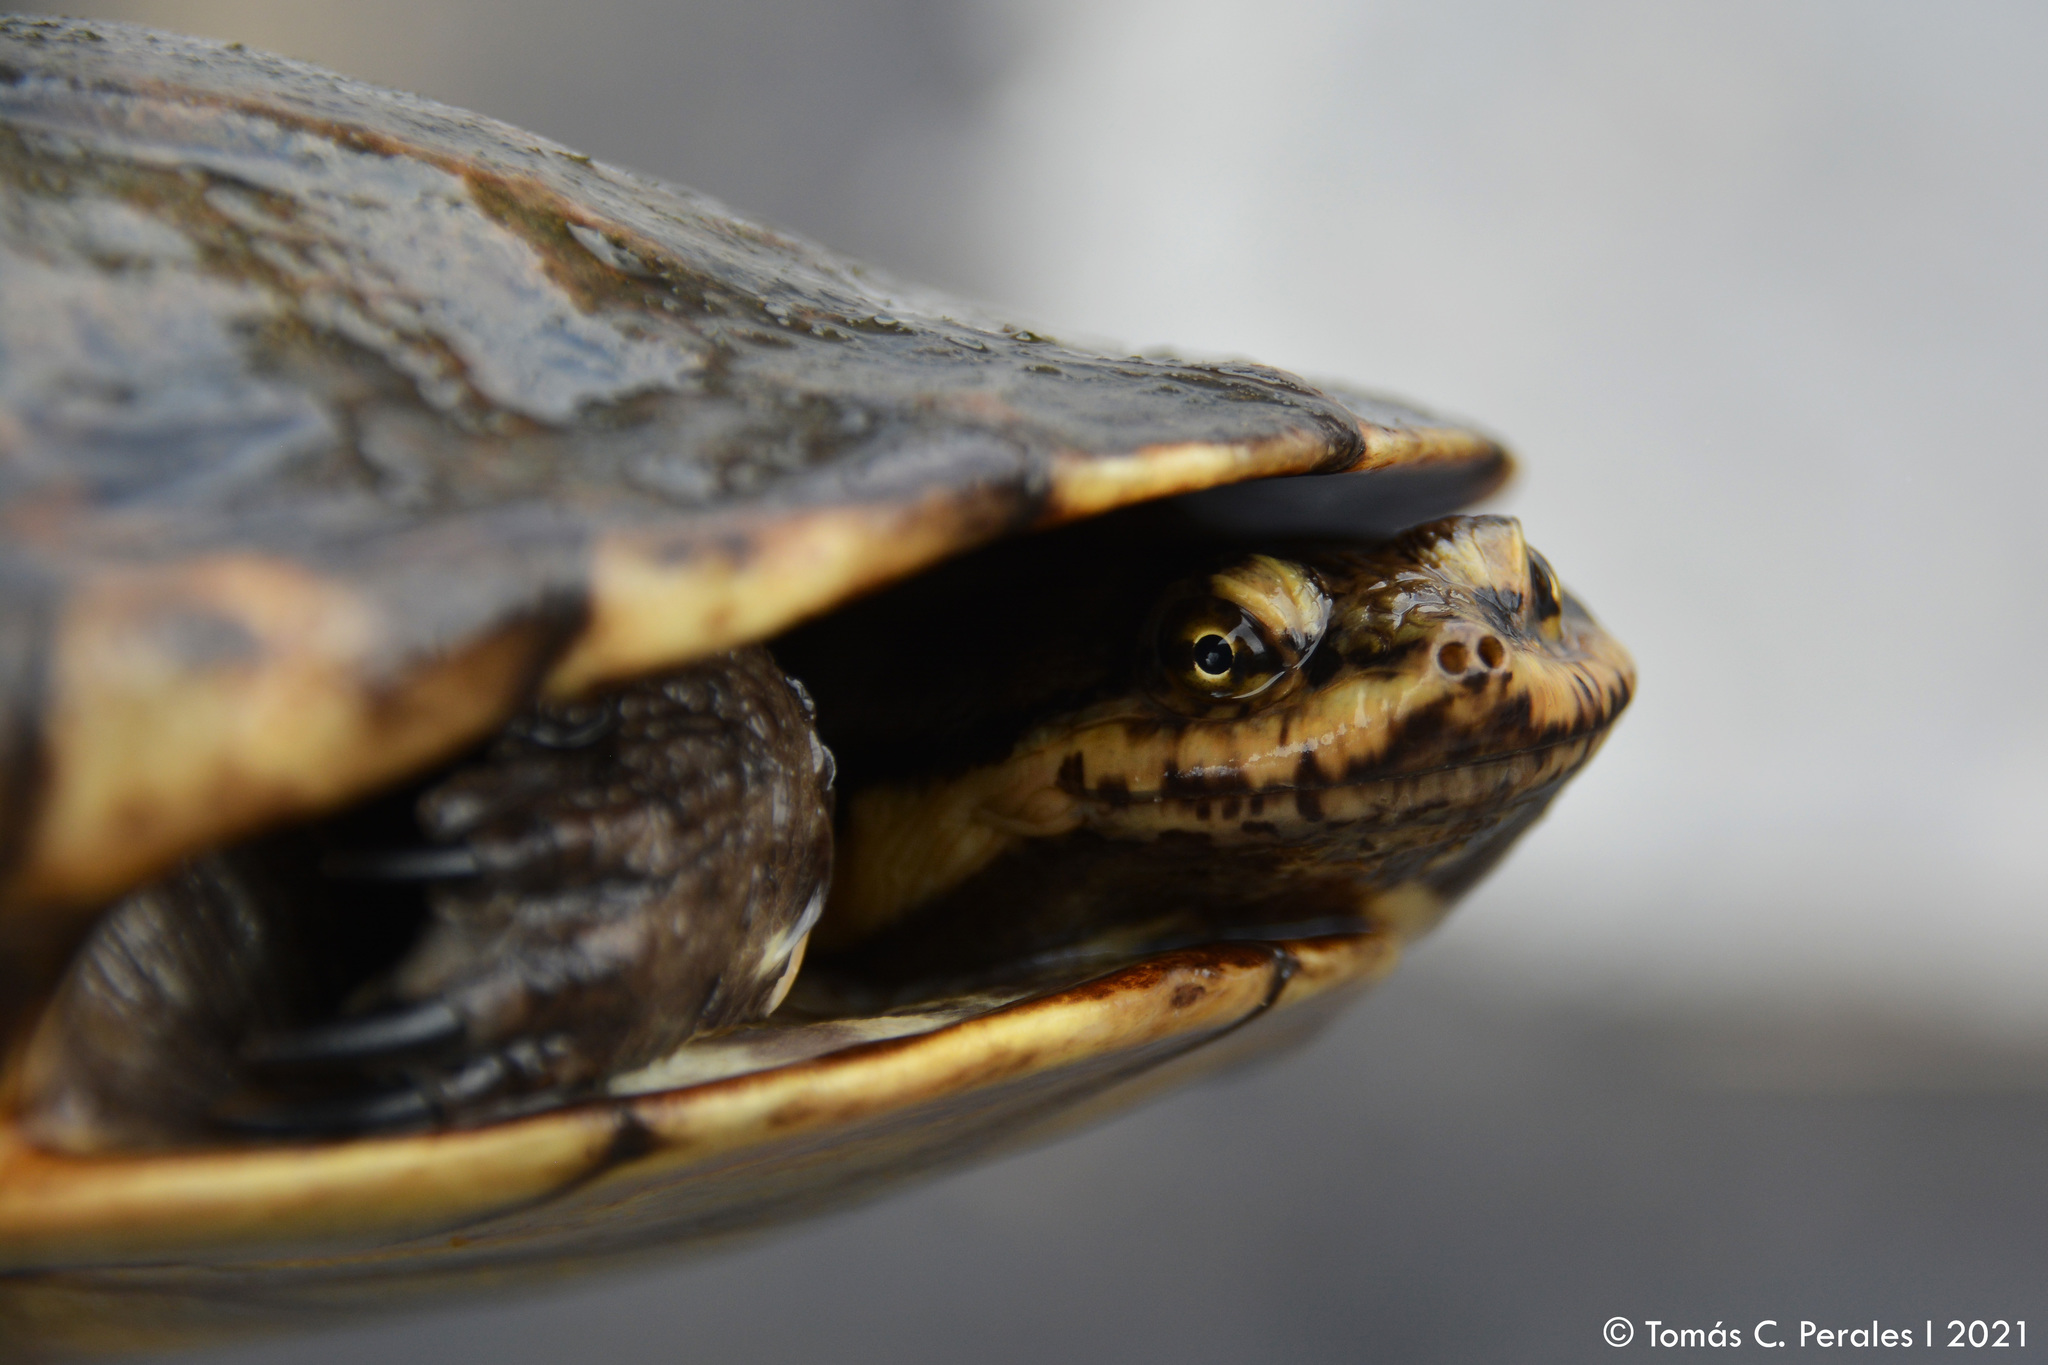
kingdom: Animalia
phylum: Chordata
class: Testudines
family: Chelidae
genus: Hydromedusa
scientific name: Hydromedusa tectifera
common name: Argentine snake-necked turtle
